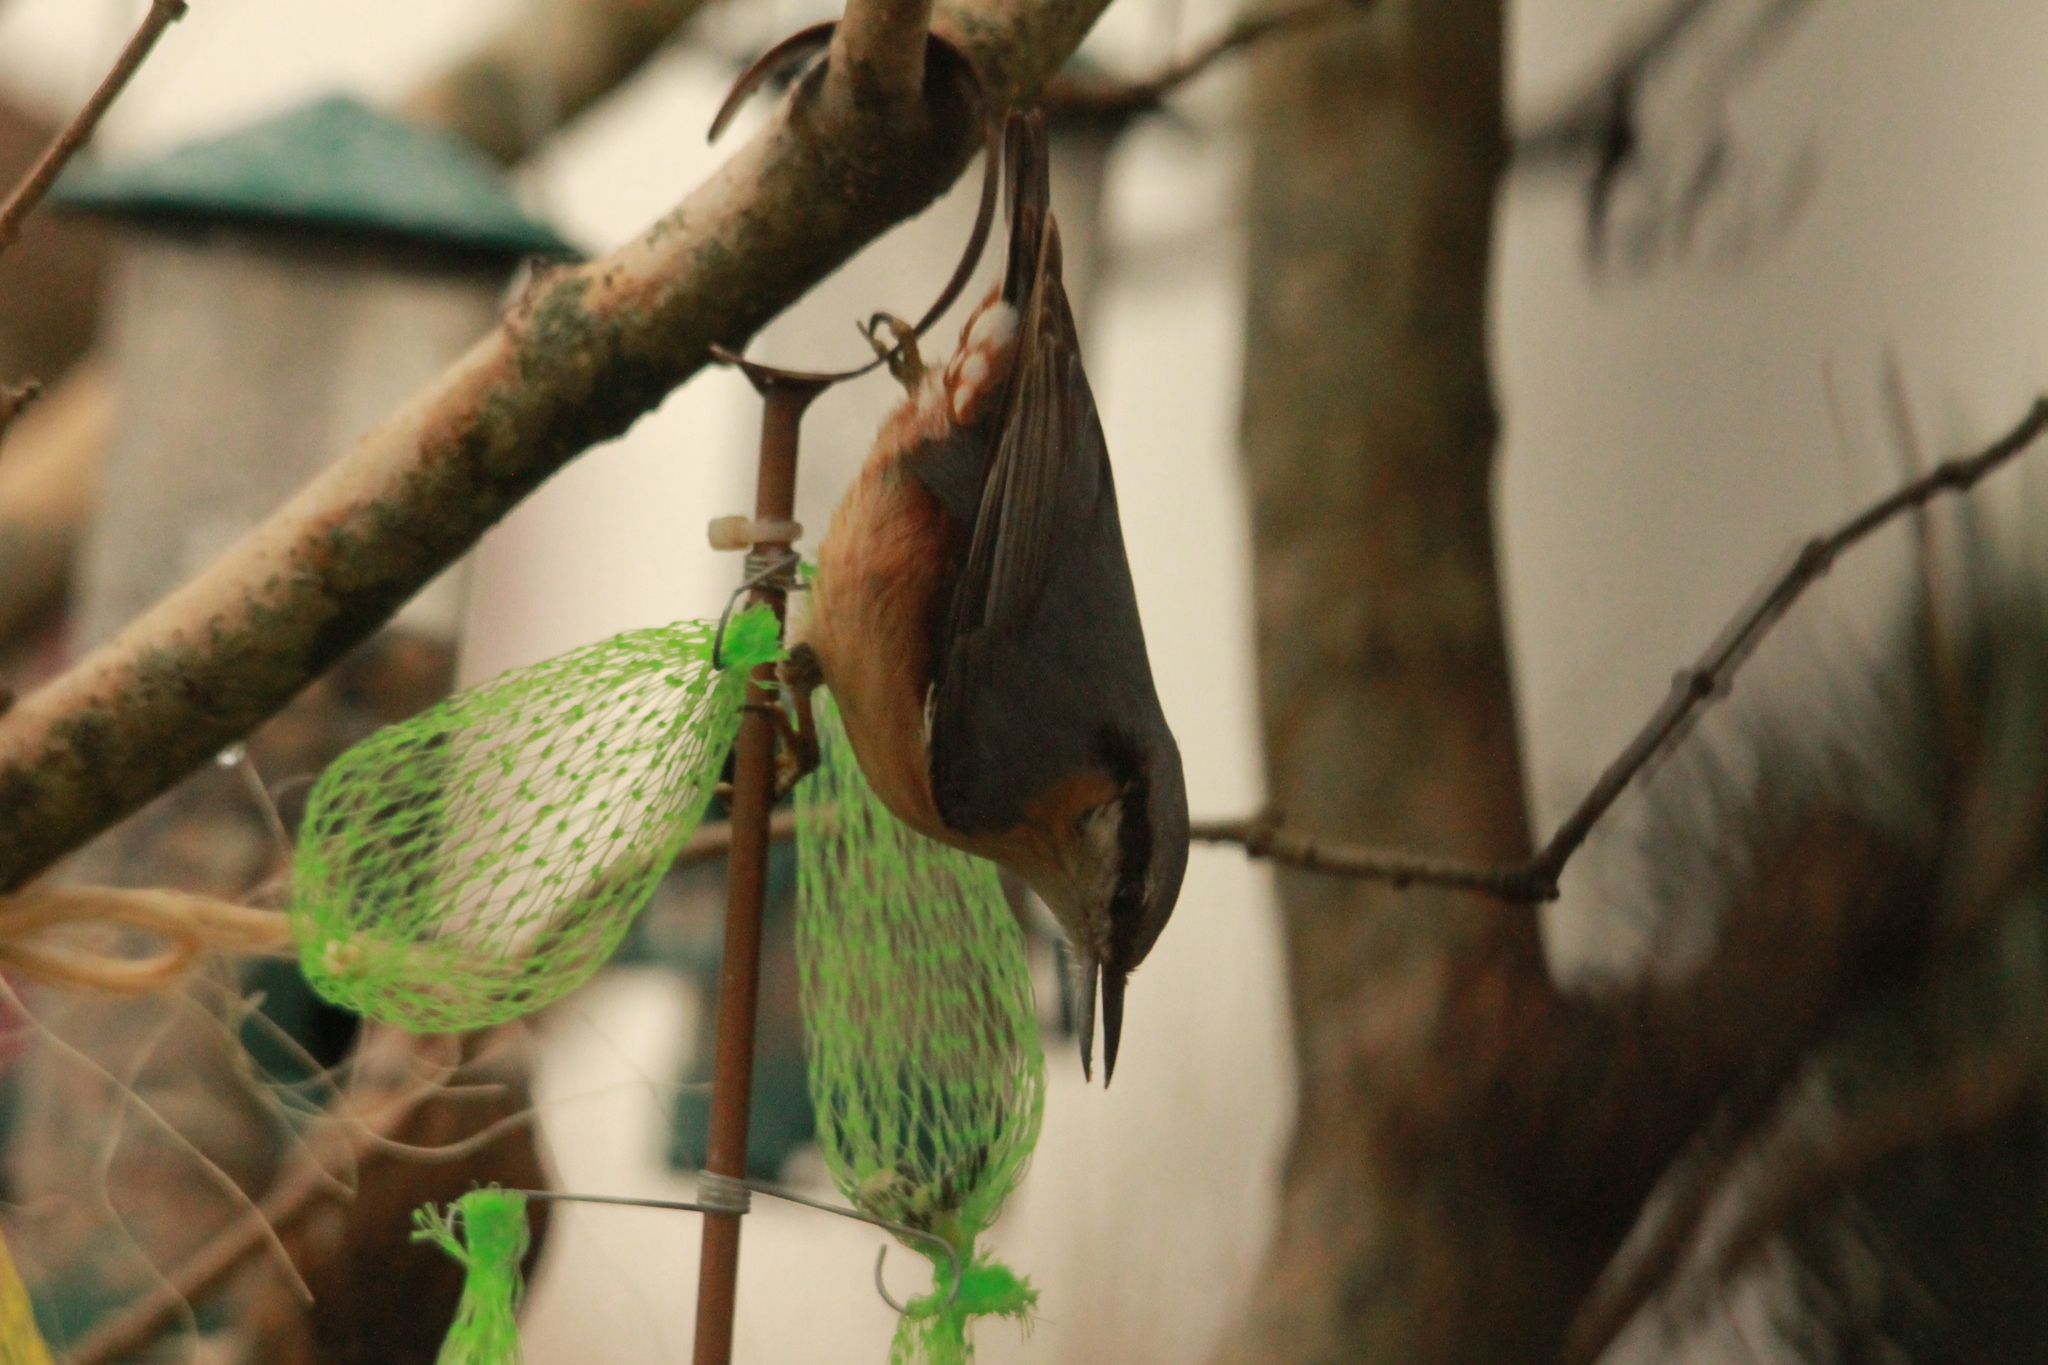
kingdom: Animalia
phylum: Chordata
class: Aves
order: Passeriformes
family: Sittidae
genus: Sitta
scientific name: Sitta europaea
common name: Eurasian nuthatch
